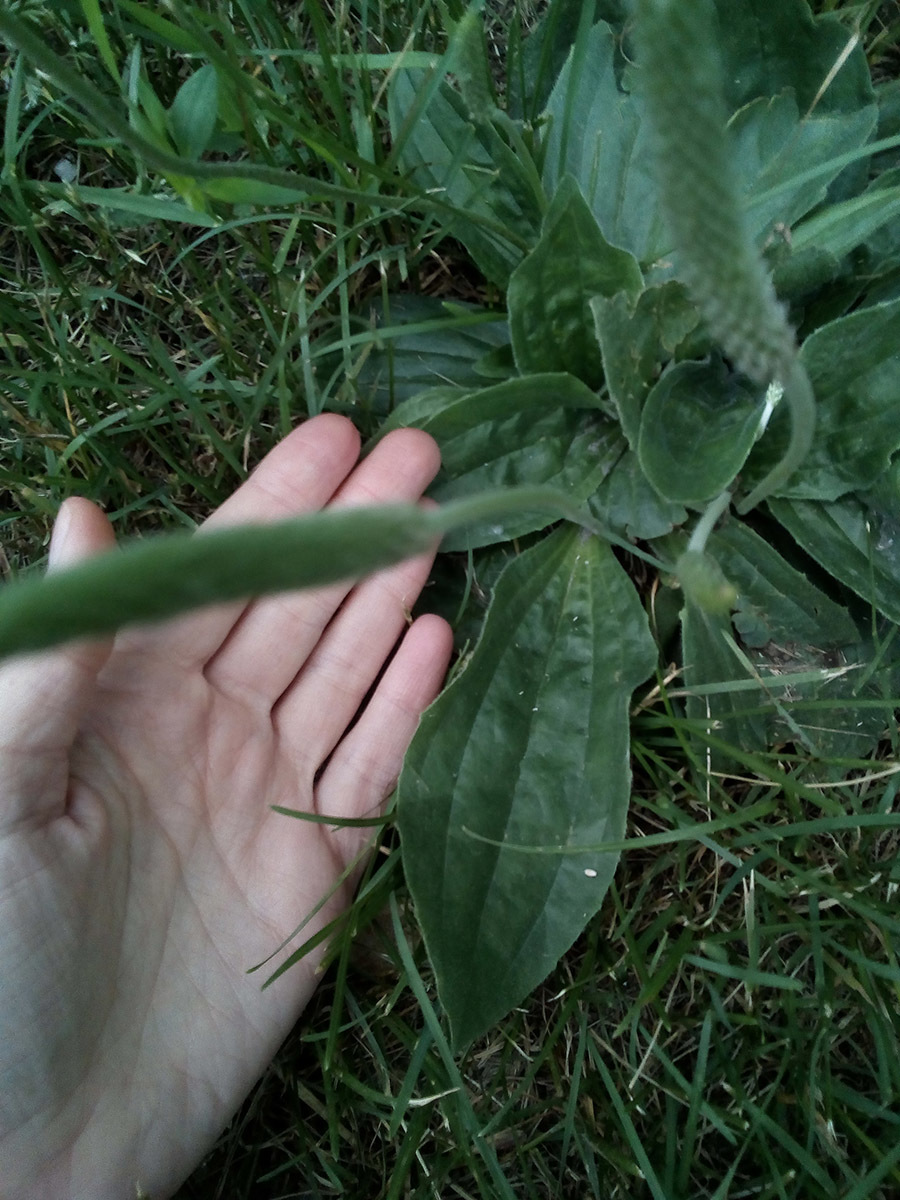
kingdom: Plantae
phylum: Tracheophyta
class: Magnoliopsida
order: Lamiales
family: Plantaginaceae
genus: Plantago
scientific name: Plantago media
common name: Hoary plantain
